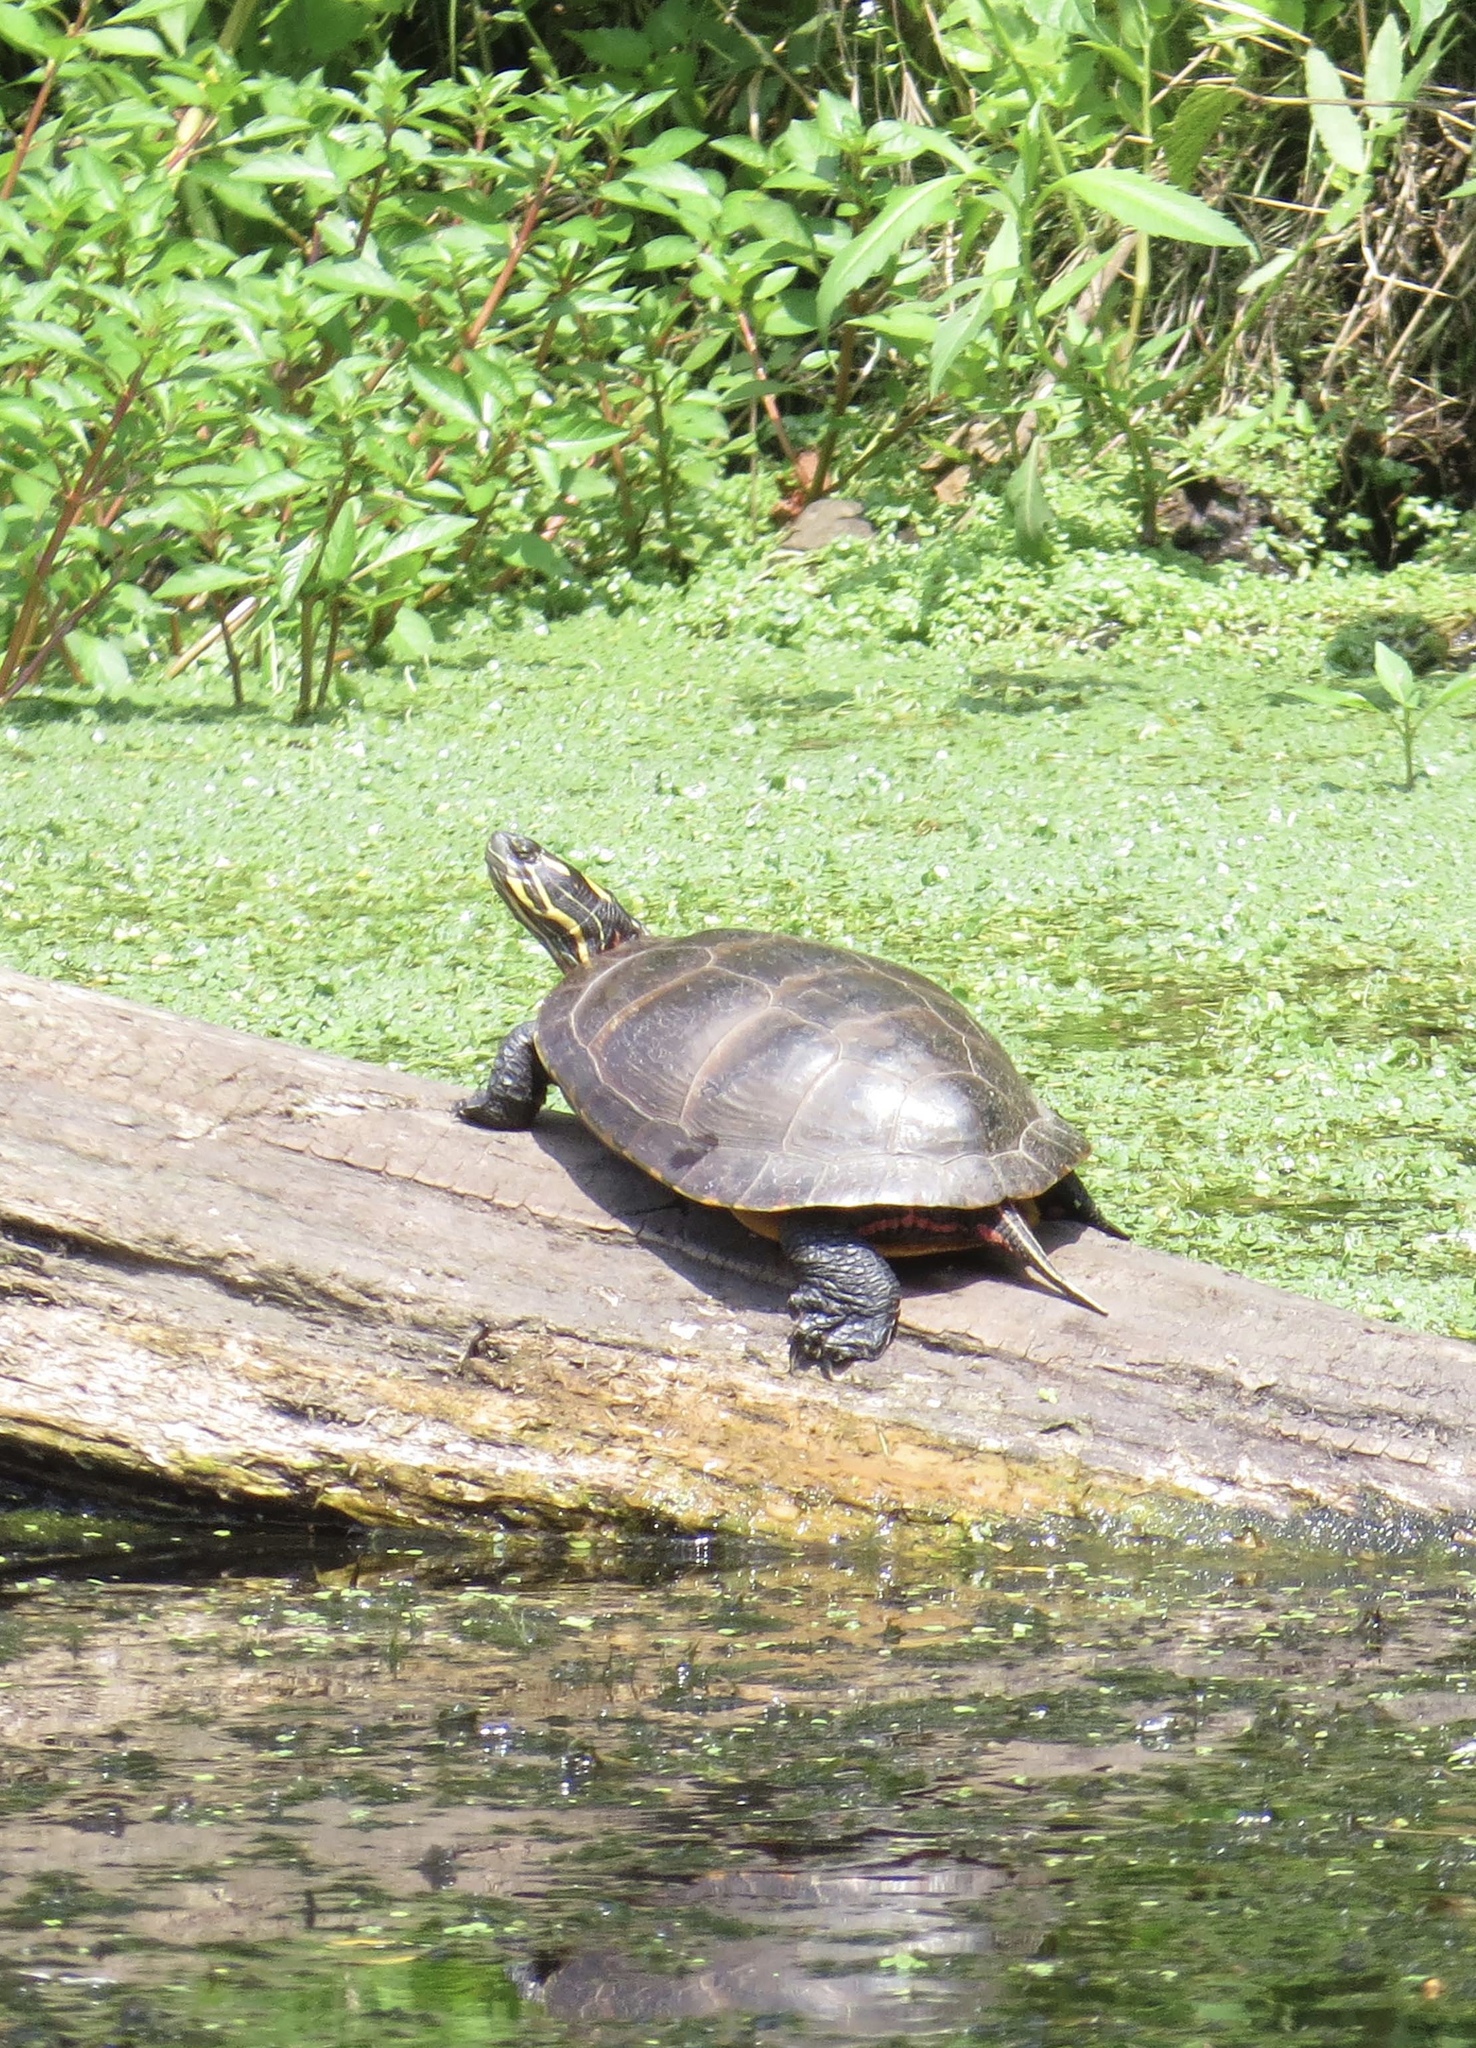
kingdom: Animalia
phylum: Chordata
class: Testudines
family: Emydidae
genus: Chrysemys
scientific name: Chrysemys picta
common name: Painted turtle
